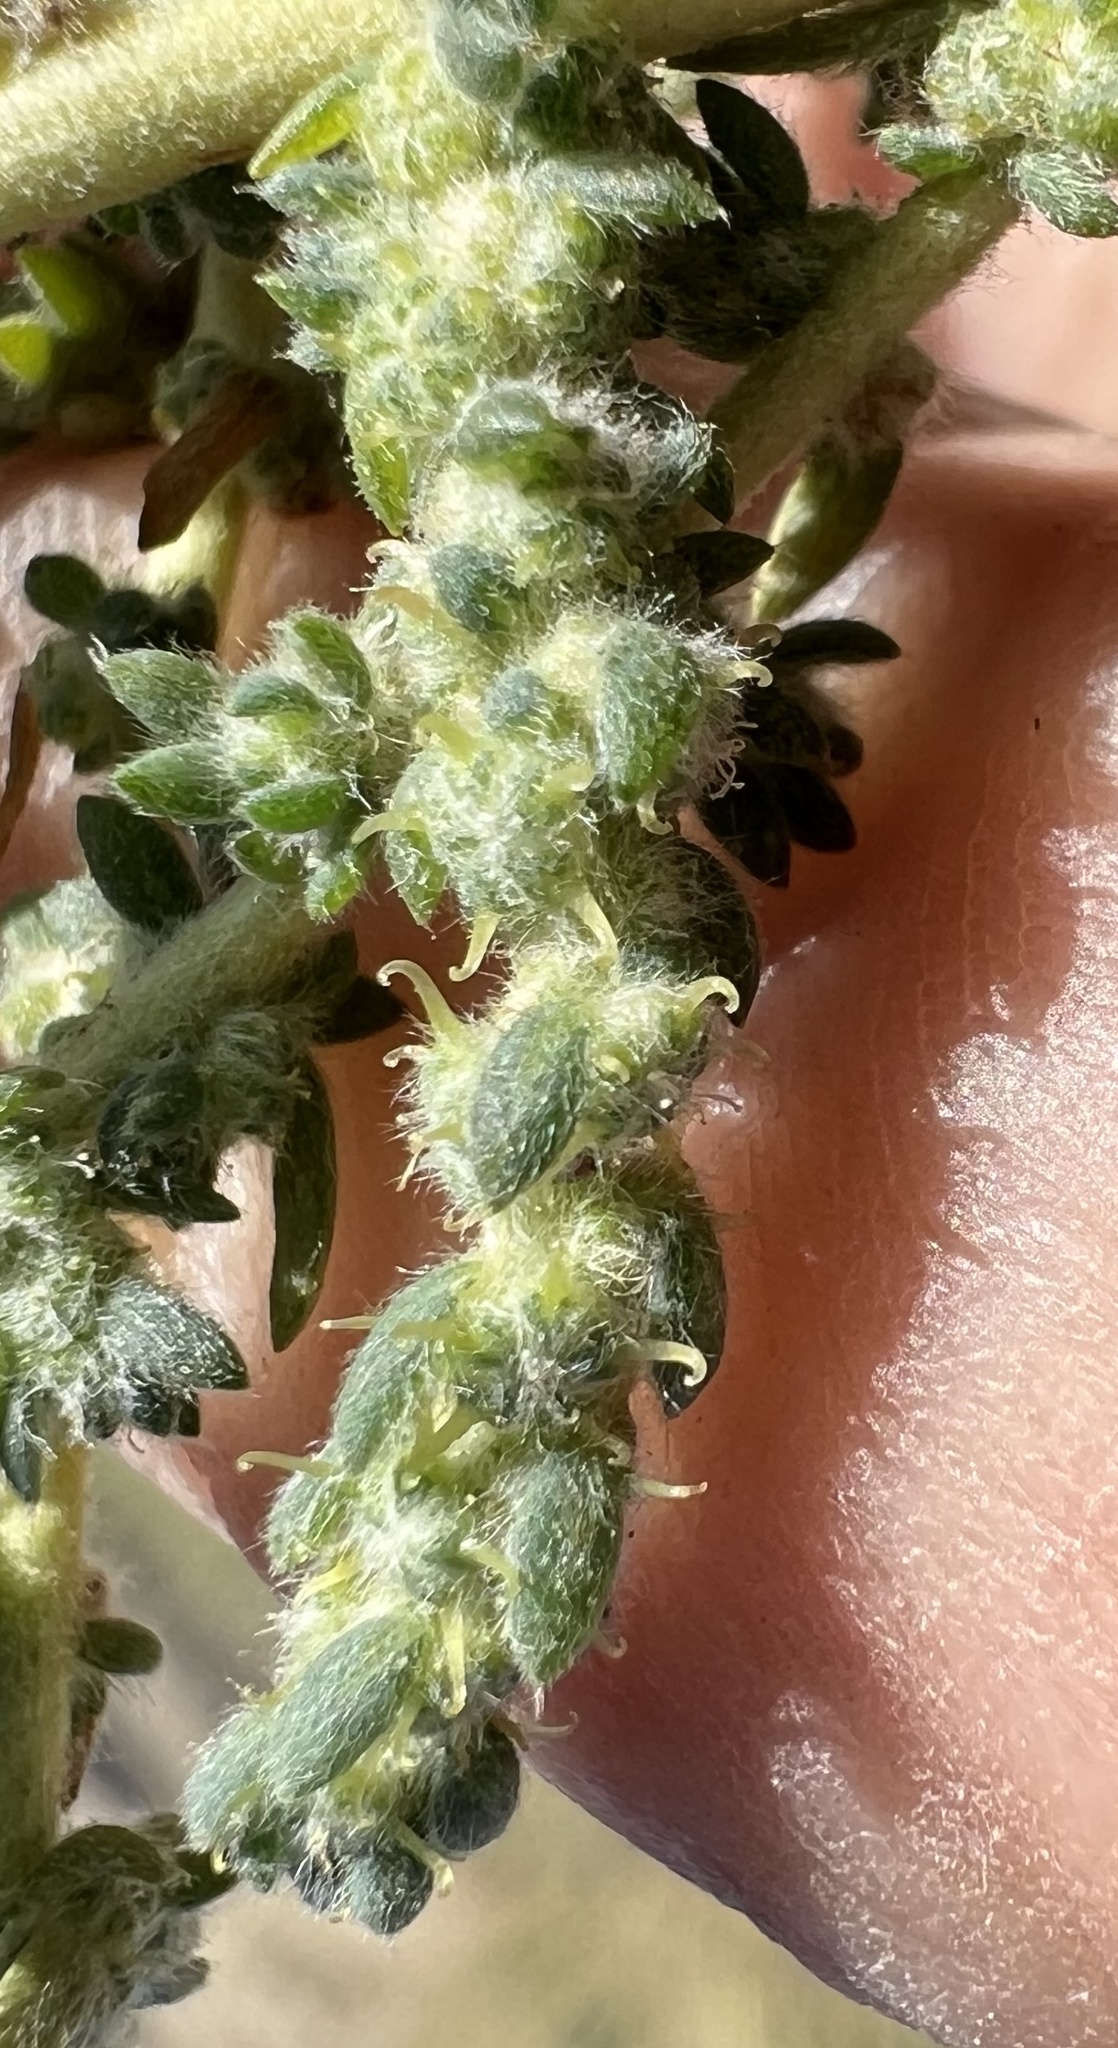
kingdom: Plantae
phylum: Tracheophyta
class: Magnoliopsida
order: Caryophyllales
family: Amaranthaceae
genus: Bassia
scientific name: Bassia hyssopifolia
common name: Fivehorn smotherweed
